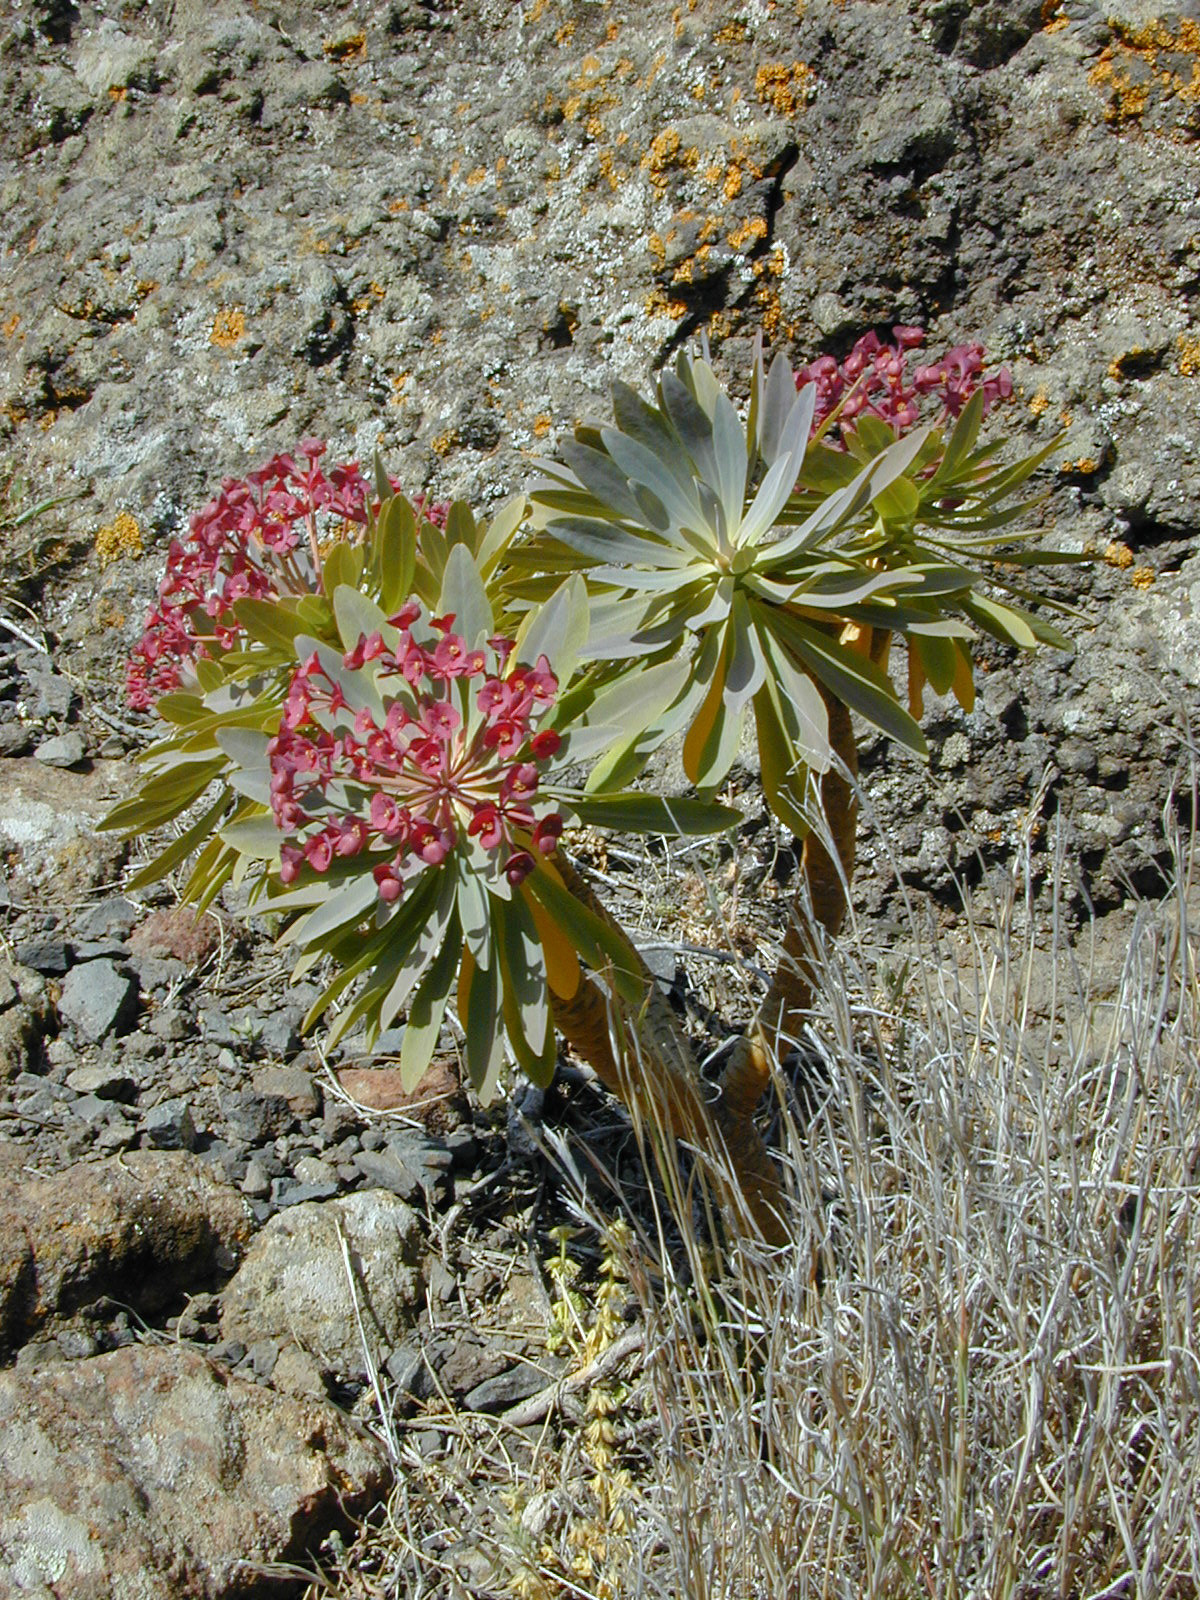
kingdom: Plantae
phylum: Tracheophyta
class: Magnoliopsida
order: Malpighiales
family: Euphorbiaceae
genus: Euphorbia
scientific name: Euphorbia atropurpurea
